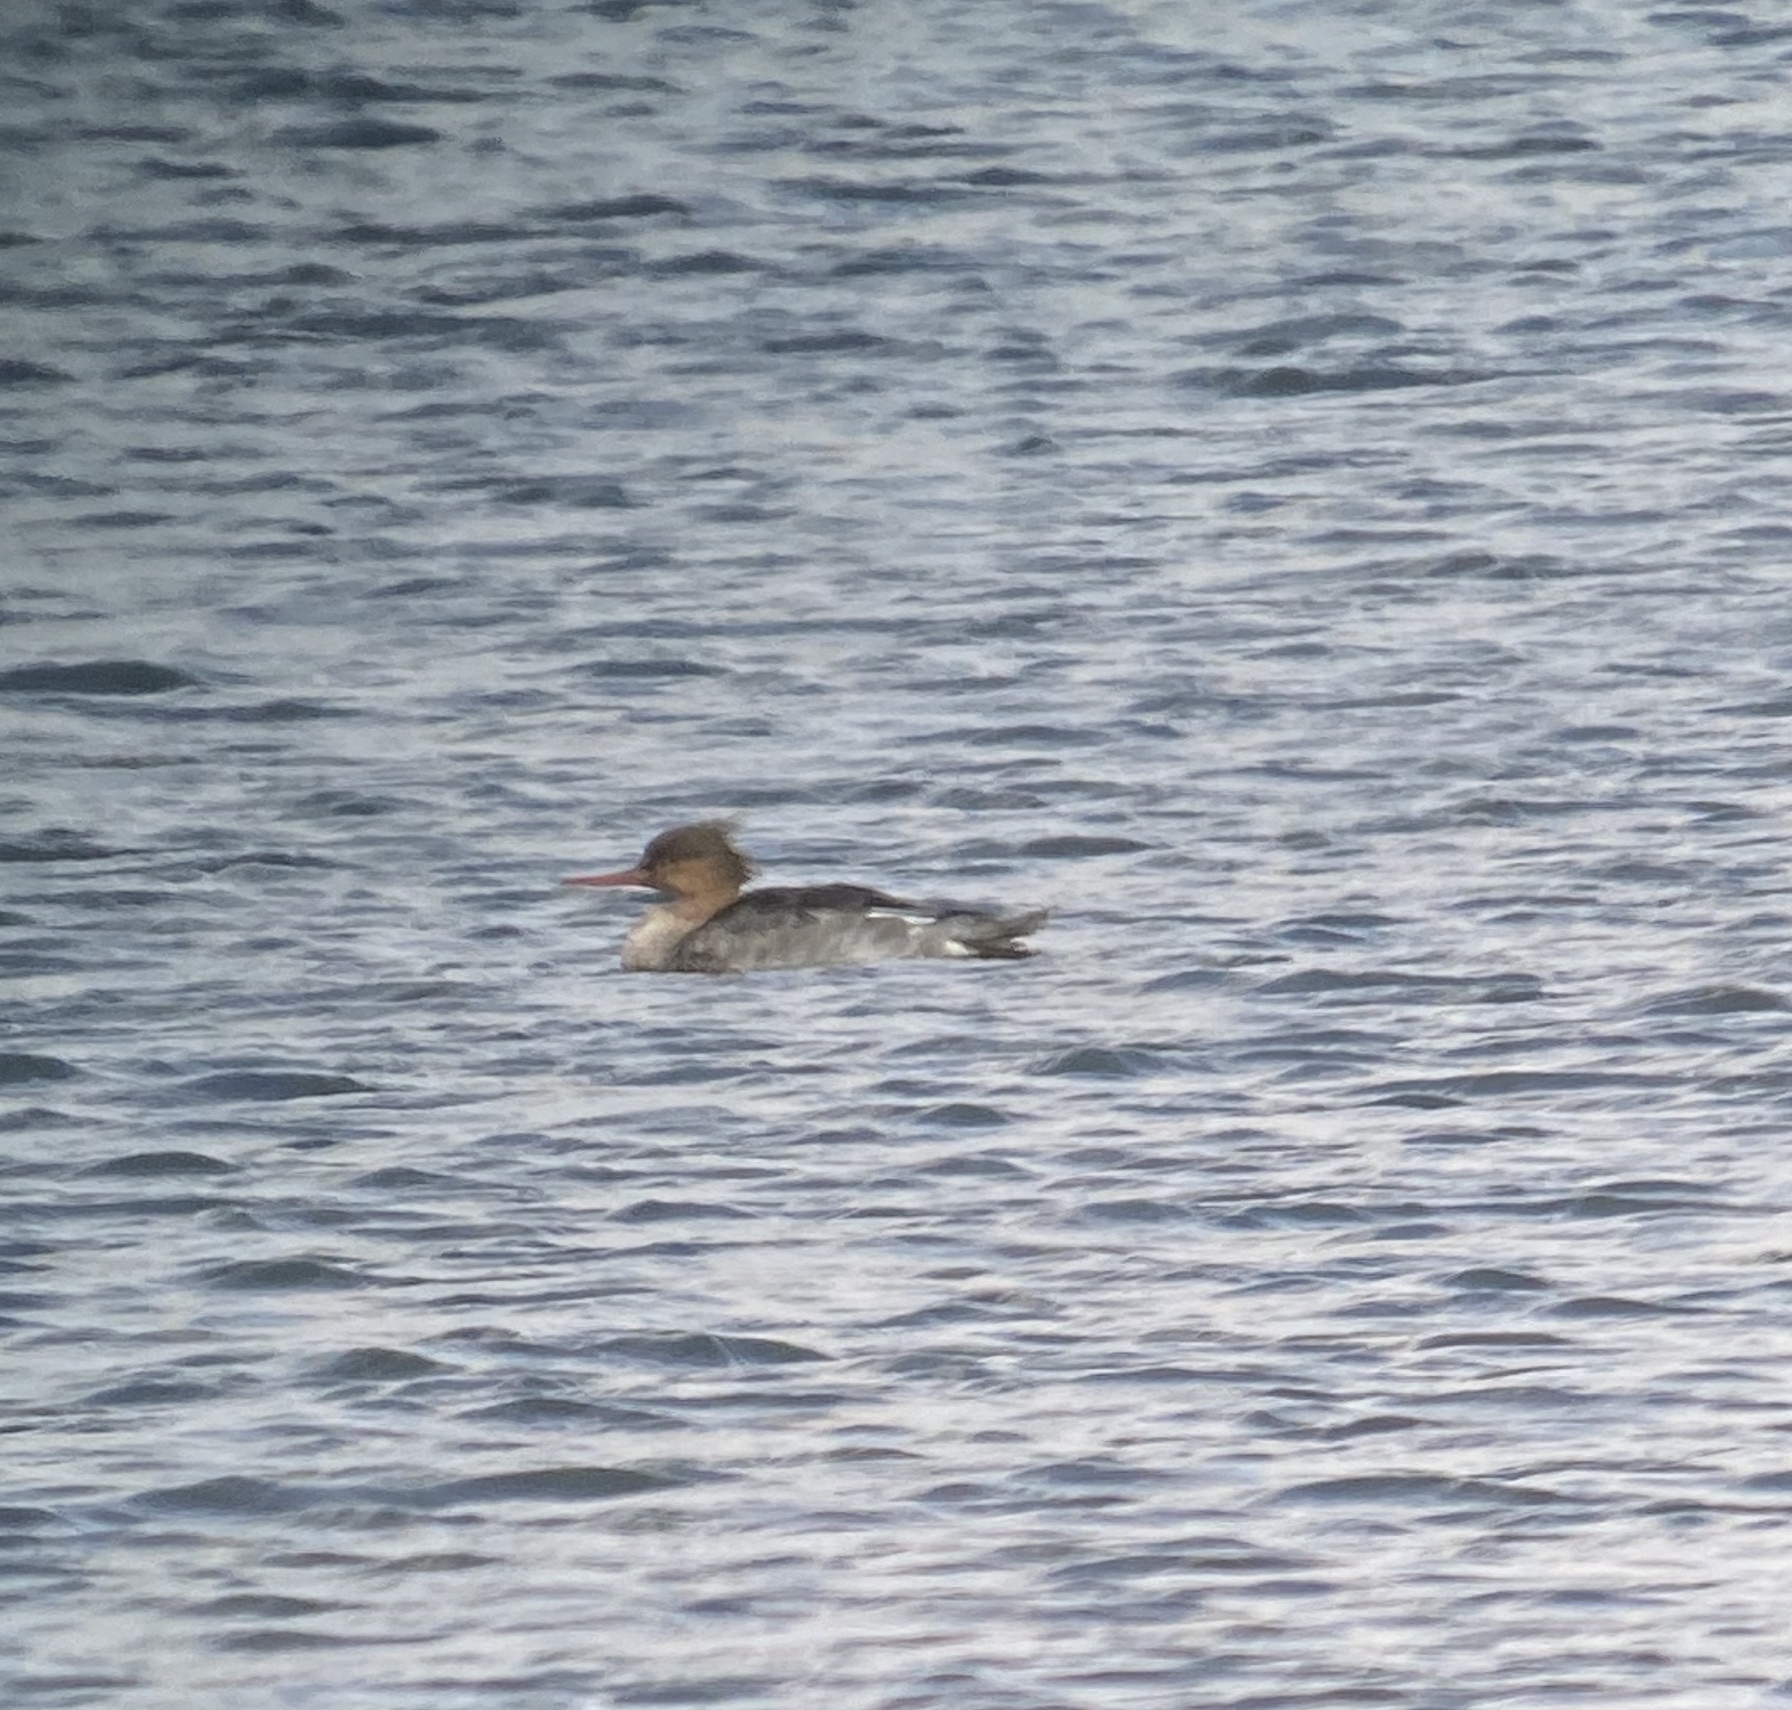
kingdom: Animalia
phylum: Chordata
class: Aves
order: Anseriformes
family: Anatidae
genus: Mergus
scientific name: Mergus serrator
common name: Red-breasted merganser
